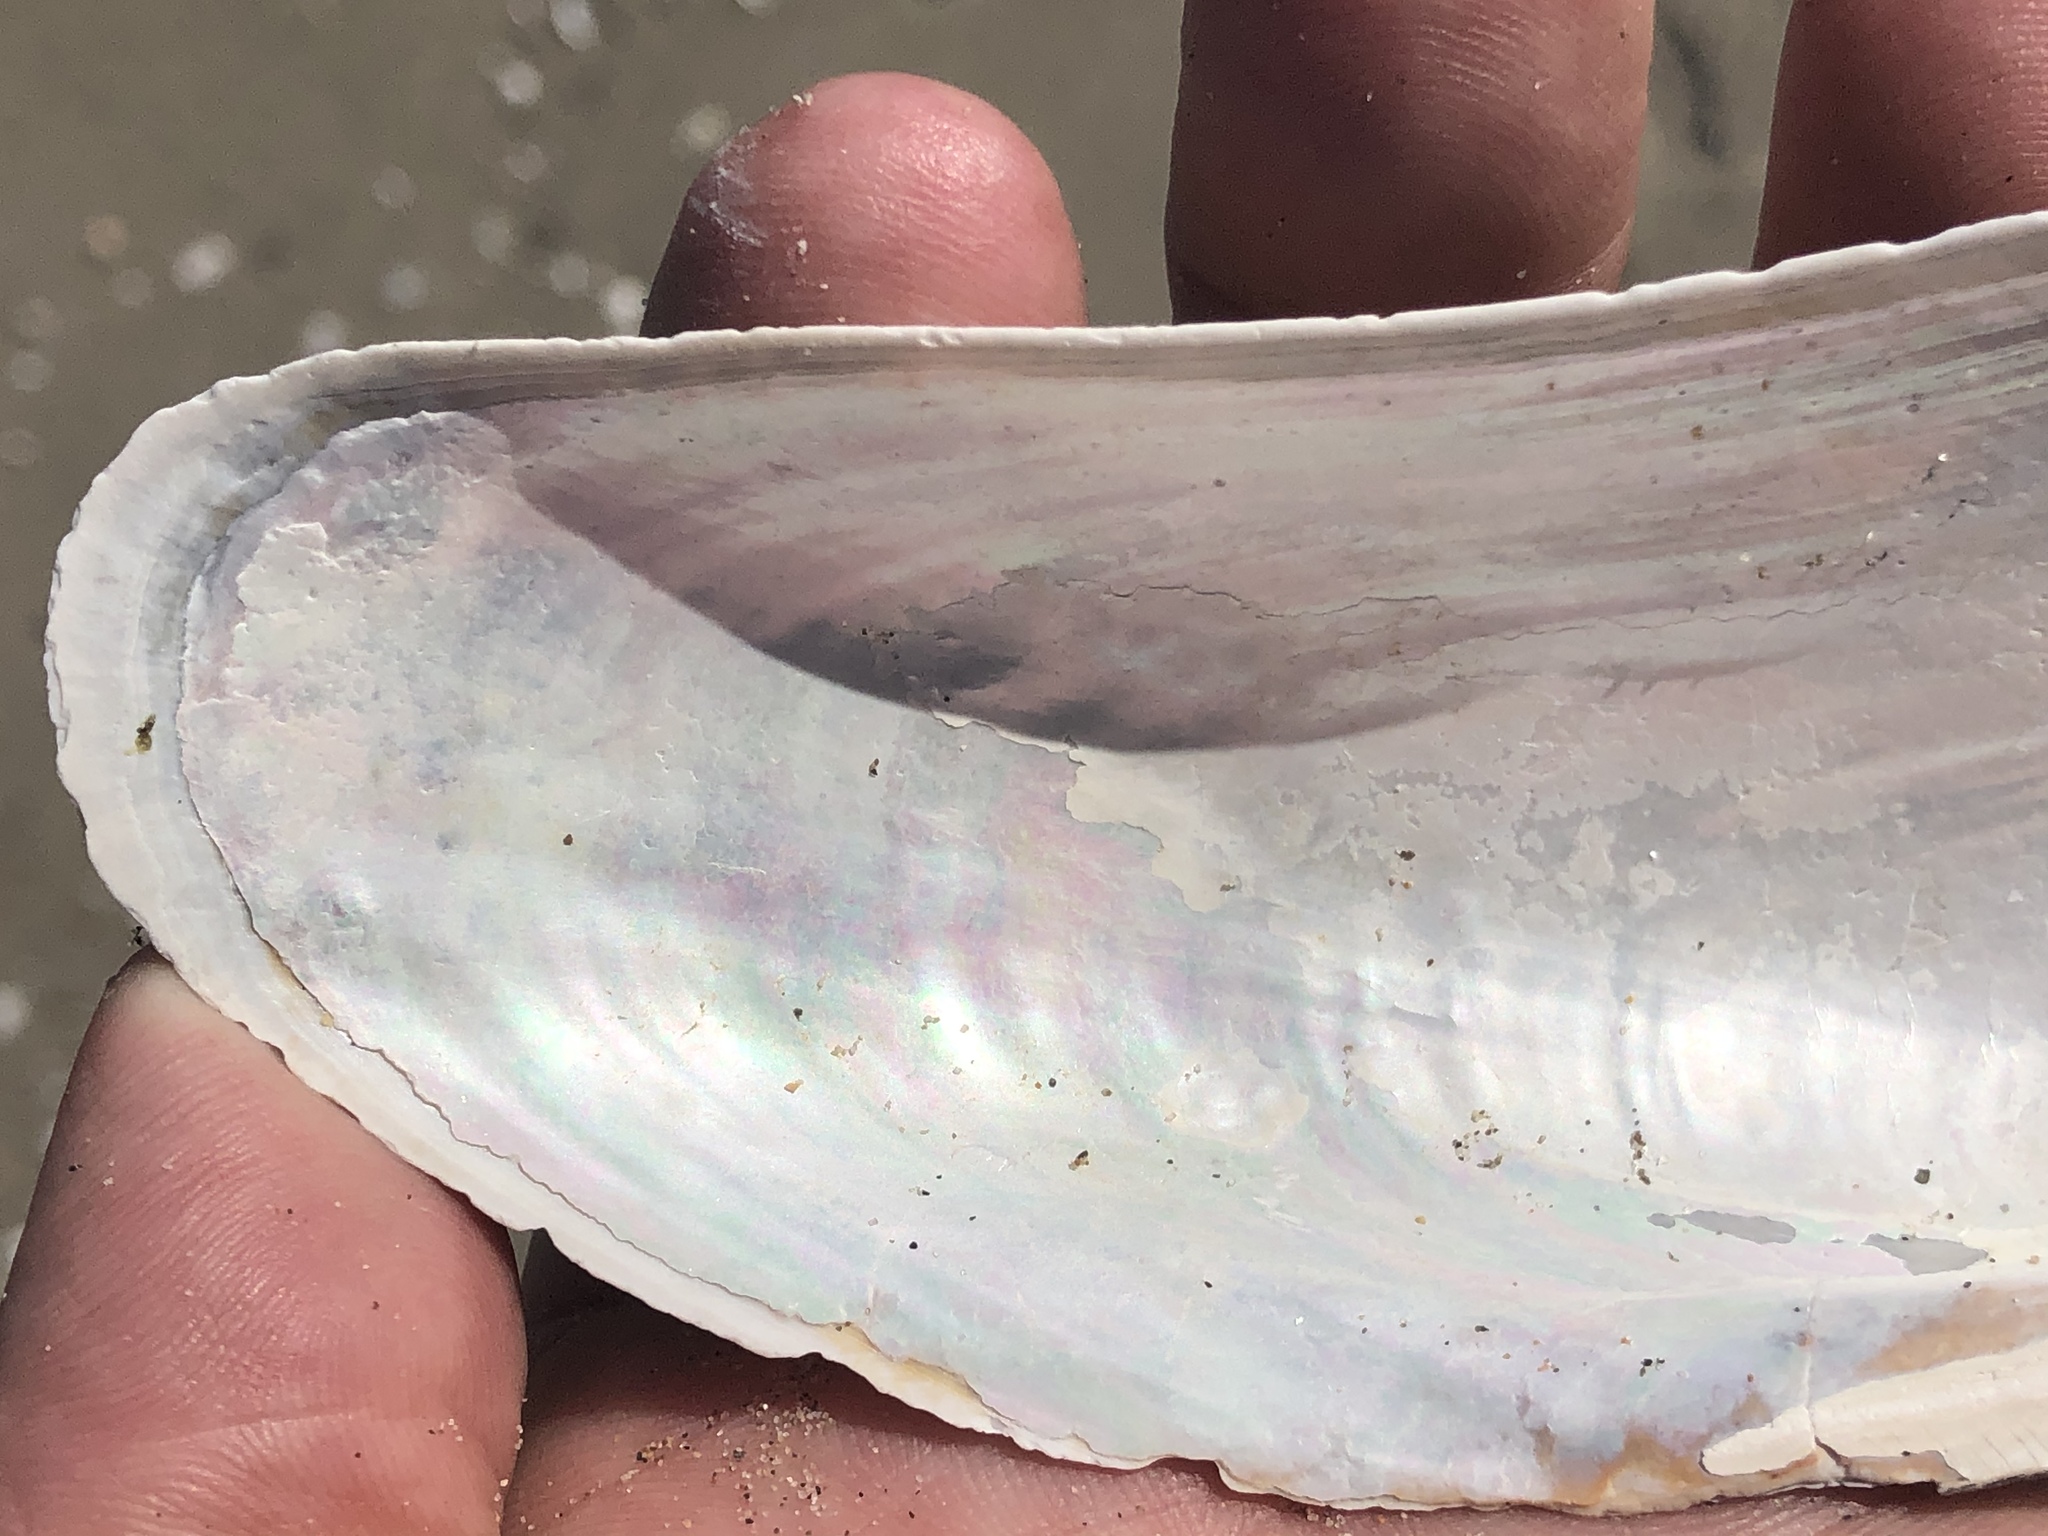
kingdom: Animalia
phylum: Mollusca
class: Bivalvia
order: Mytilida
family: Mytilidae
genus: Modiolus
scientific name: Modiolus rectus
